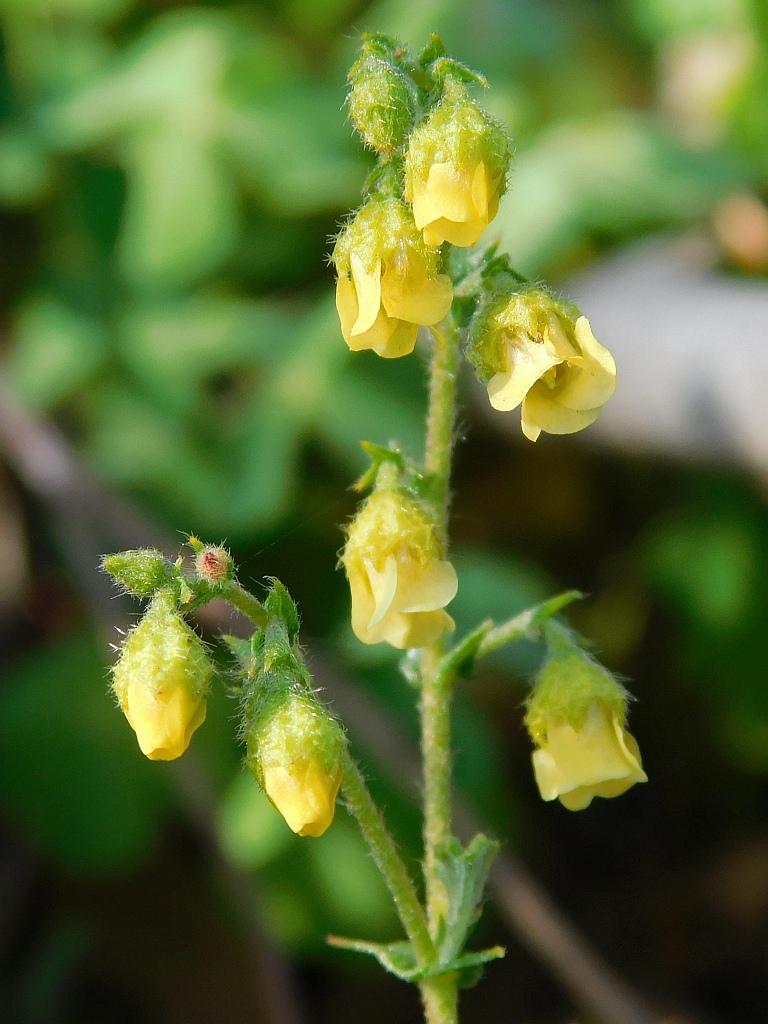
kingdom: Plantae
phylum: Tracheophyta
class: Magnoliopsida
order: Malvales
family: Malvaceae
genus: Hermannia
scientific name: Hermannia alnifolia
